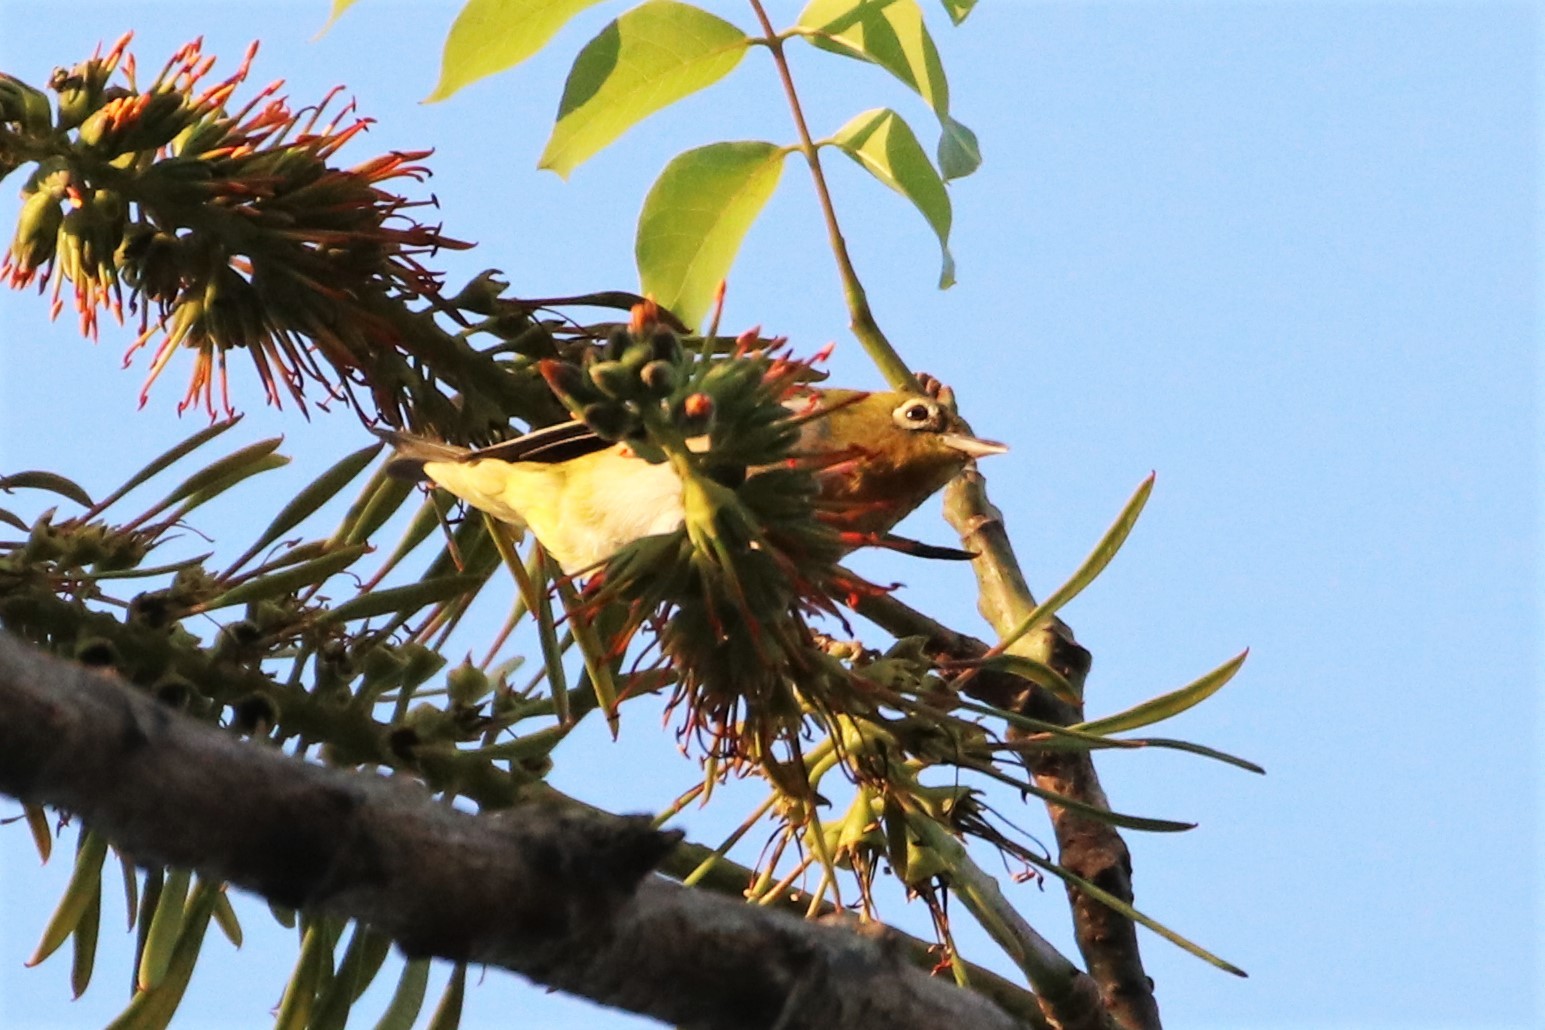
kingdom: Animalia
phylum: Chordata
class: Aves
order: Passeriformes
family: Zosteropidae
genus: Zosterops
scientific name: Zosterops auriventer
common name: Hume's white-eye
